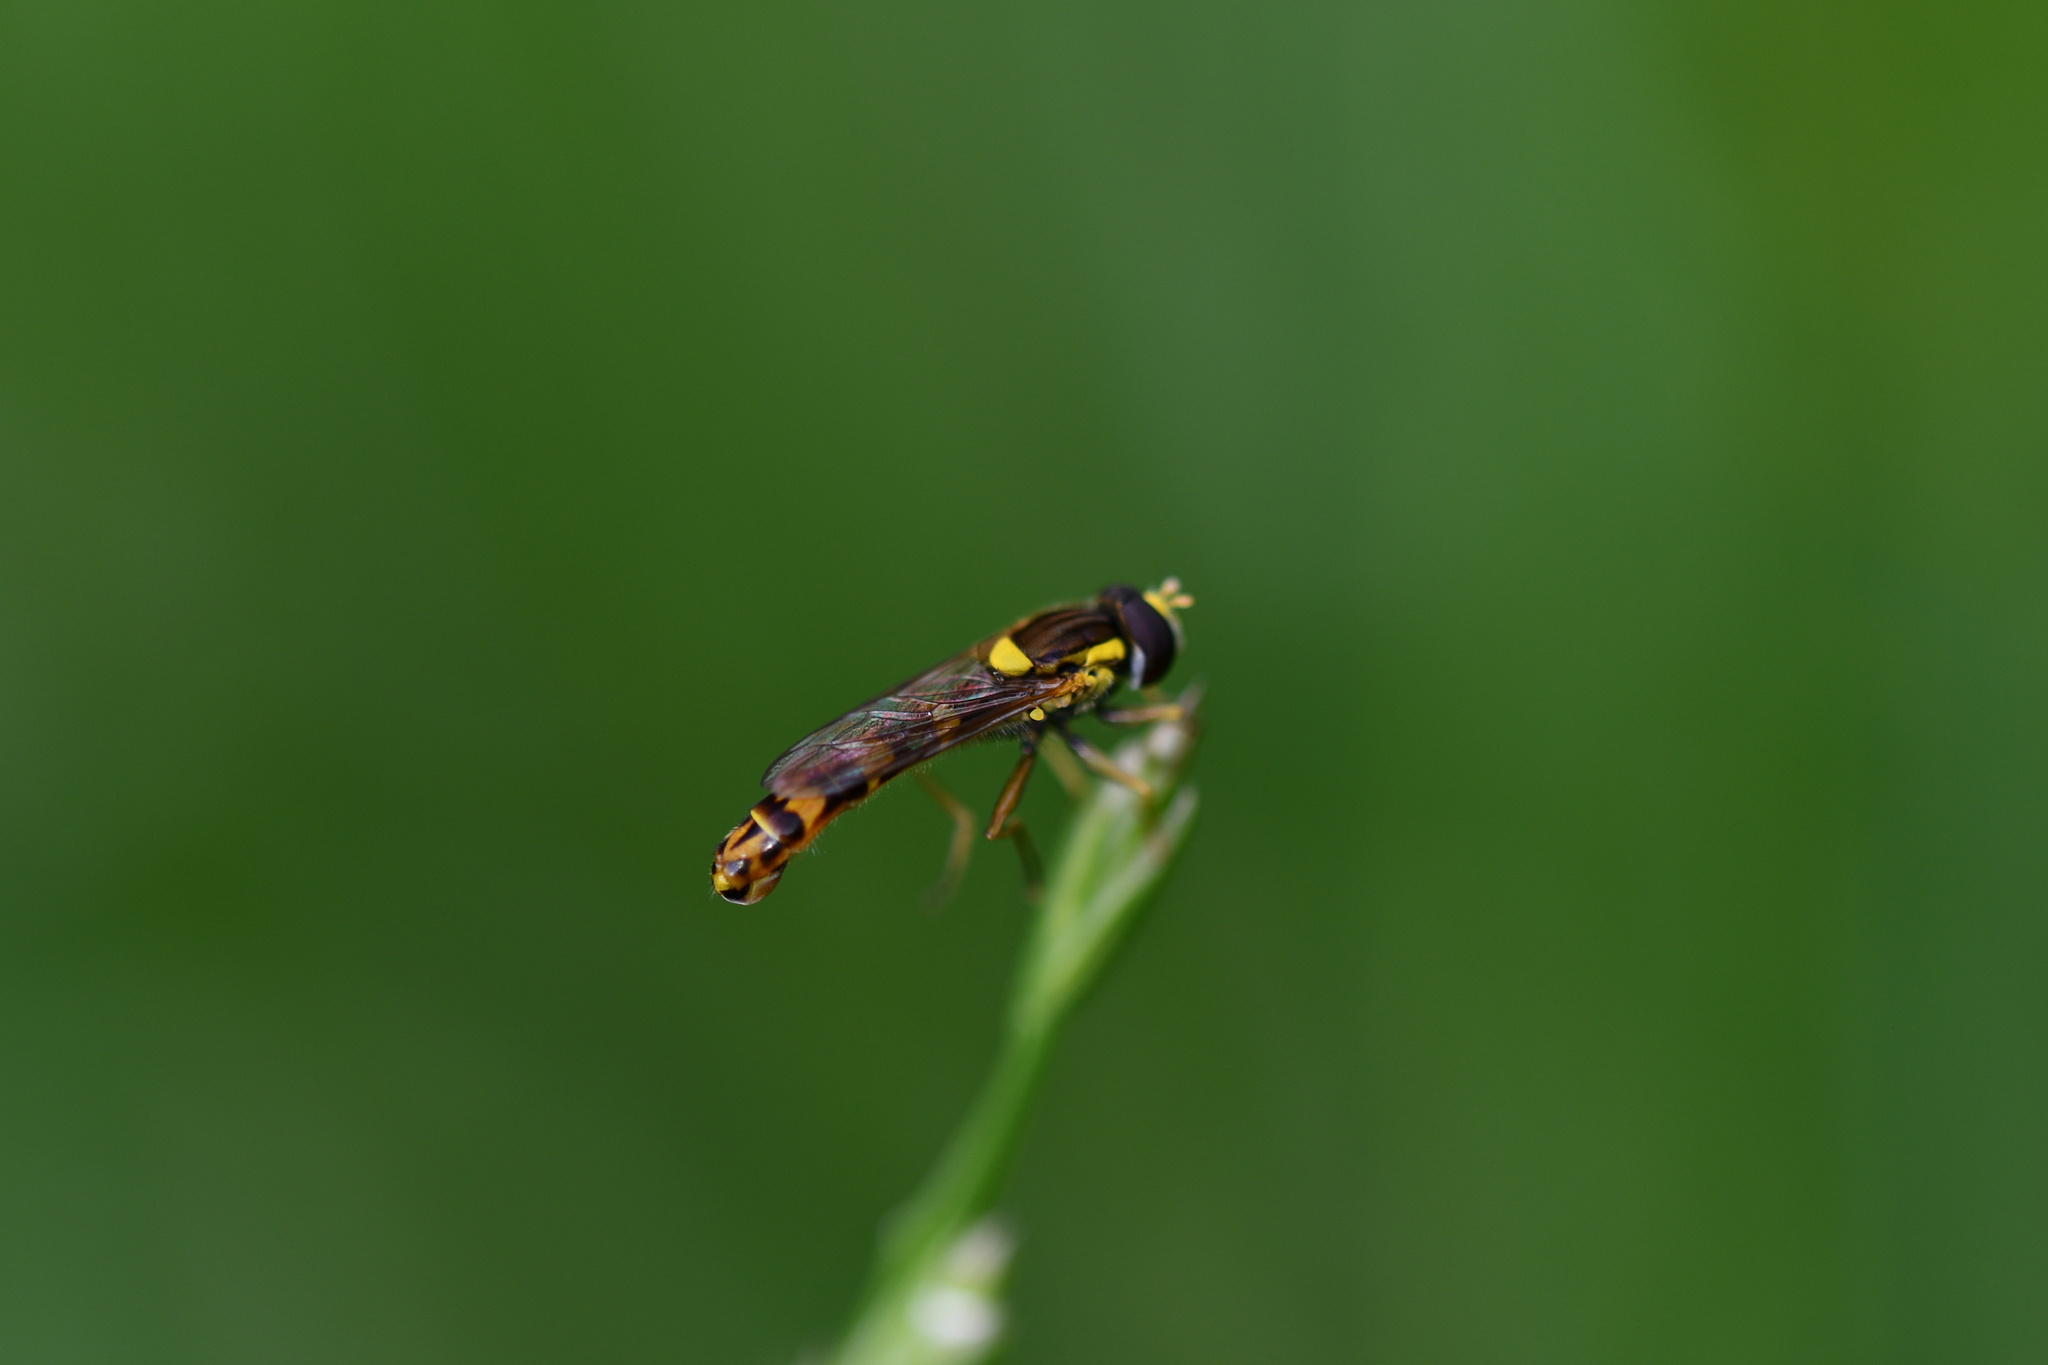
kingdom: Animalia
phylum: Arthropoda
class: Insecta
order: Diptera
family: Syrphidae
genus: Sphaerophoria
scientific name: Sphaerophoria scripta
